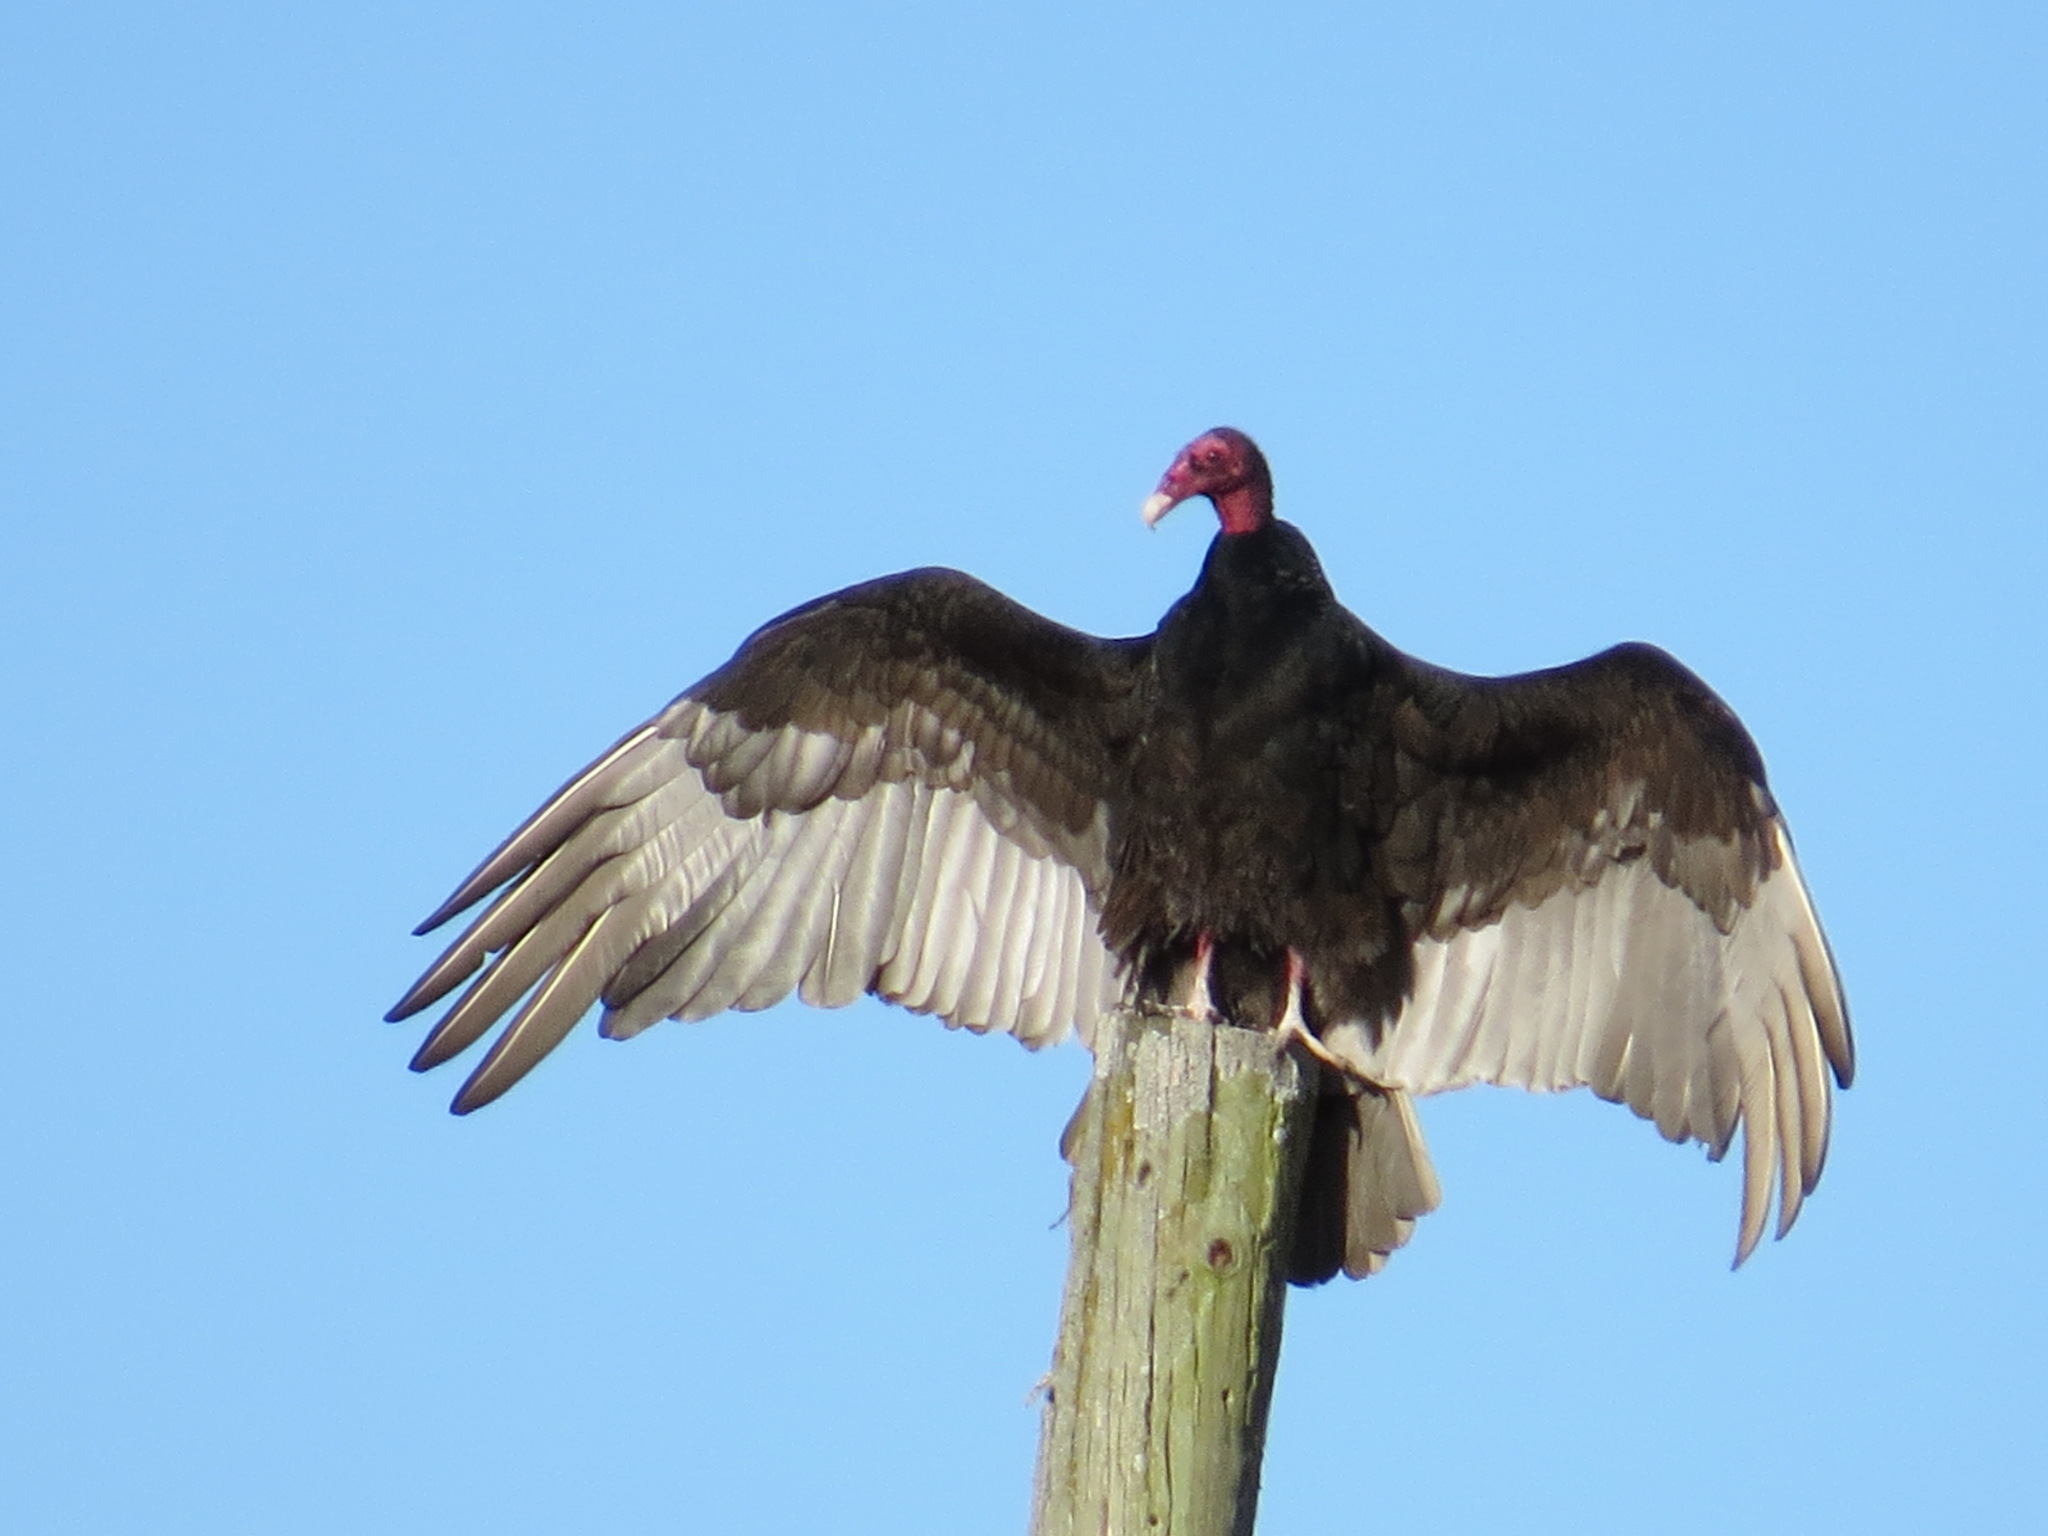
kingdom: Animalia
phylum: Chordata
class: Aves
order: Accipitriformes
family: Cathartidae
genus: Cathartes
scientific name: Cathartes aura
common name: Turkey vulture
